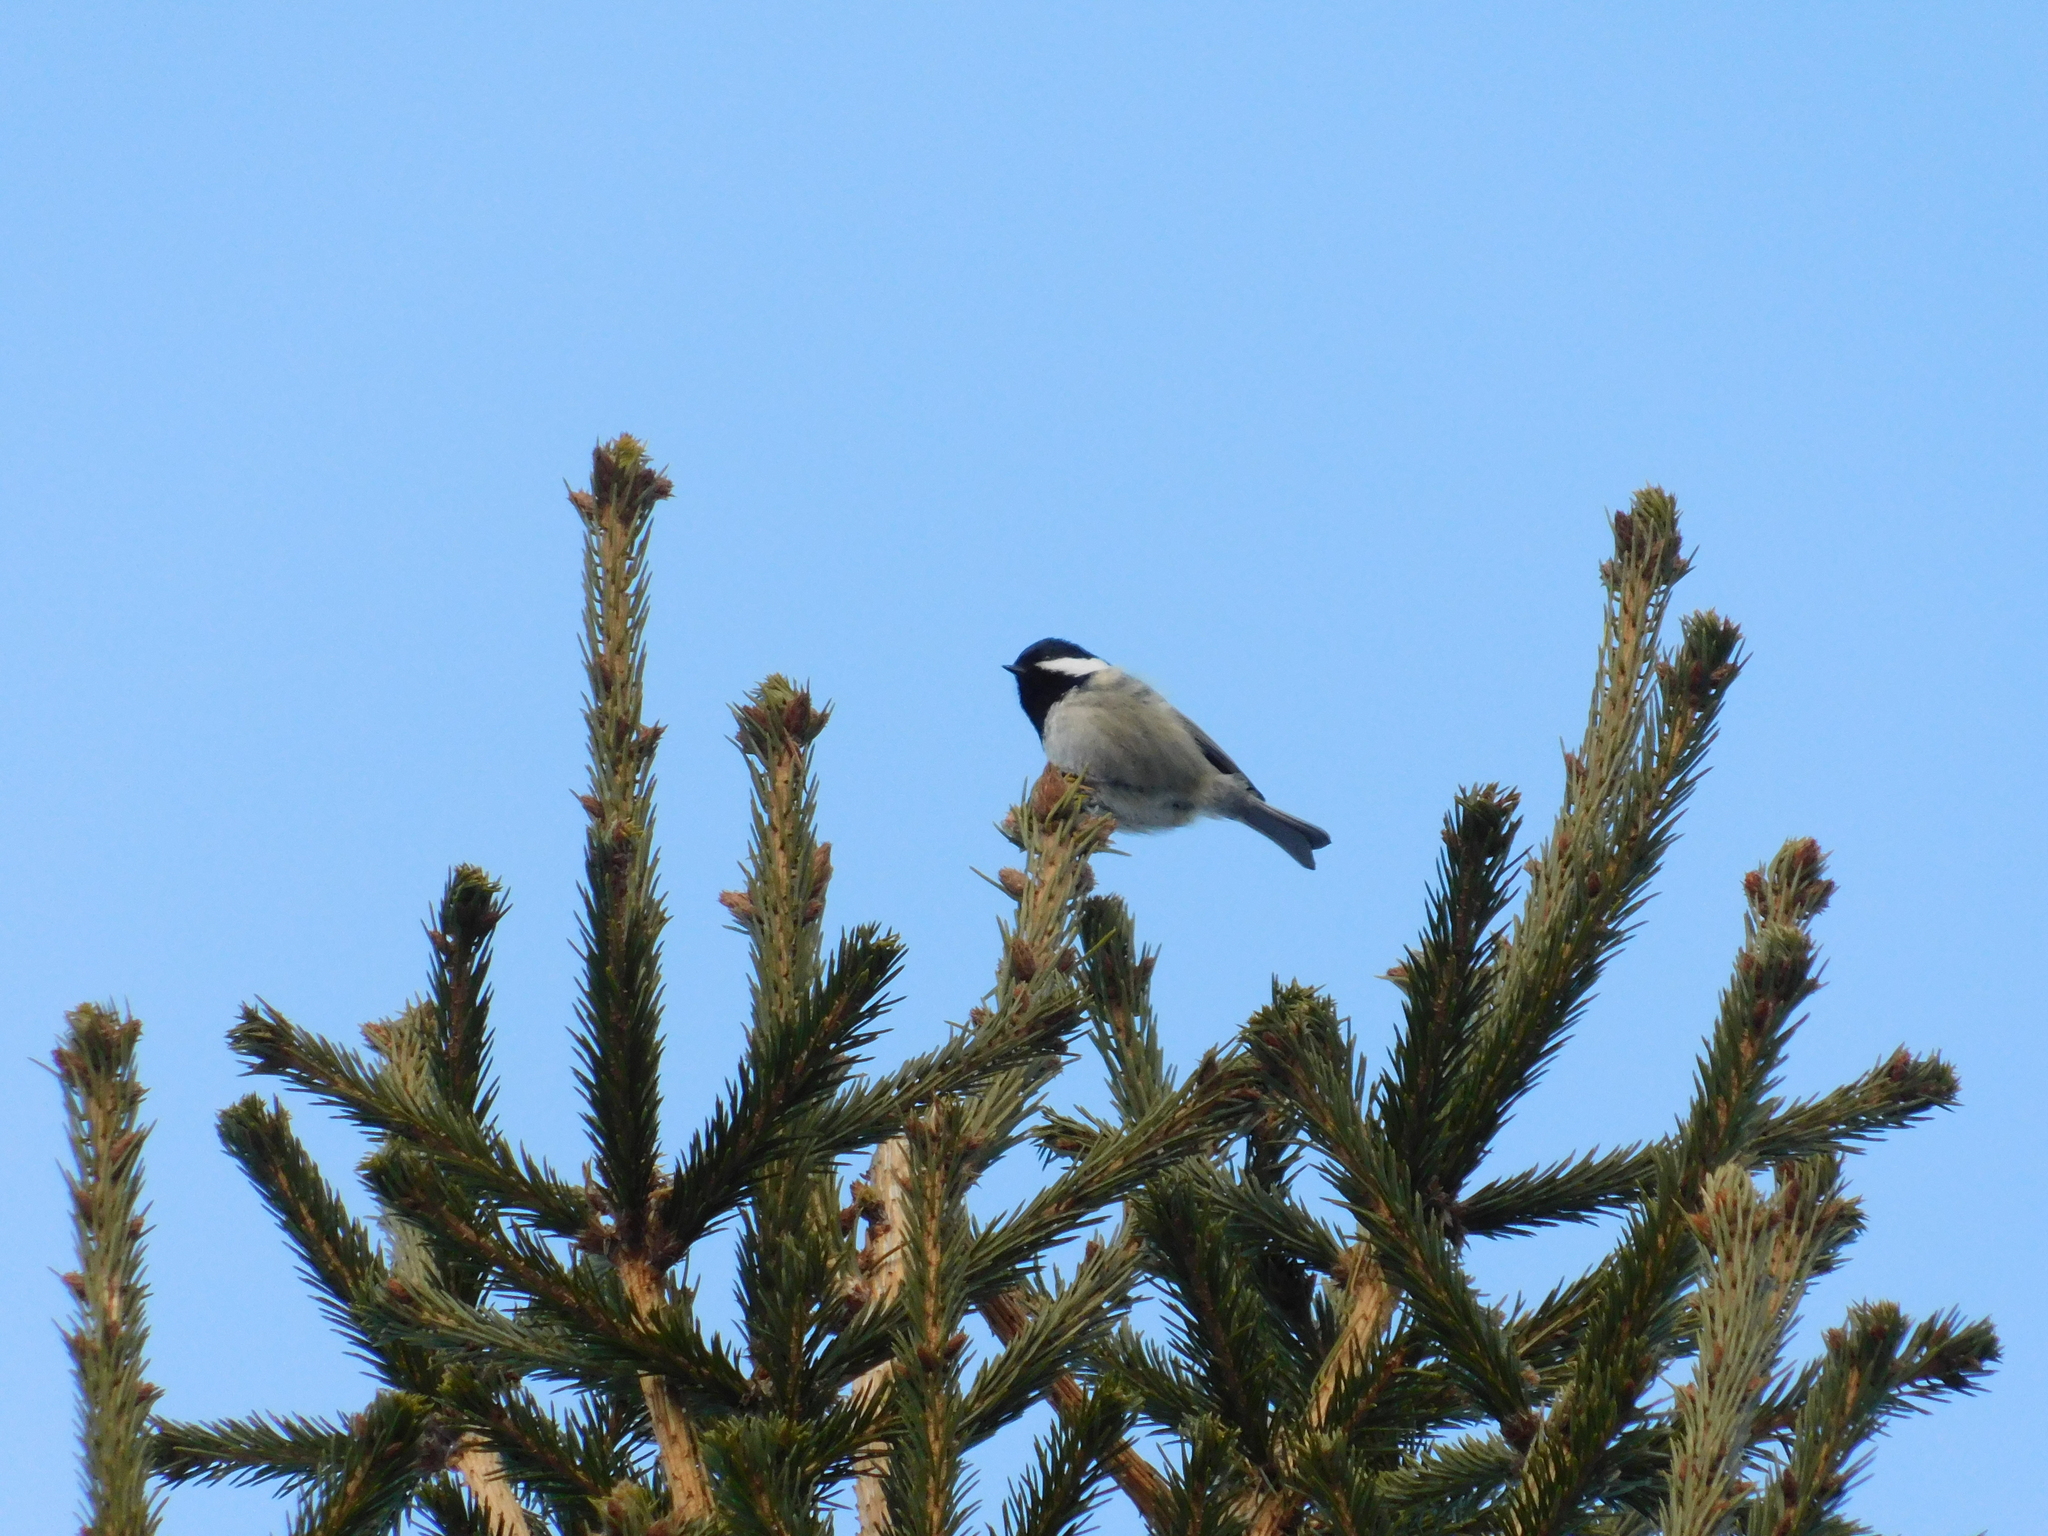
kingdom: Animalia
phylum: Chordata
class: Aves
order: Passeriformes
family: Paridae
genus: Periparus
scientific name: Periparus ater
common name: Coal tit
